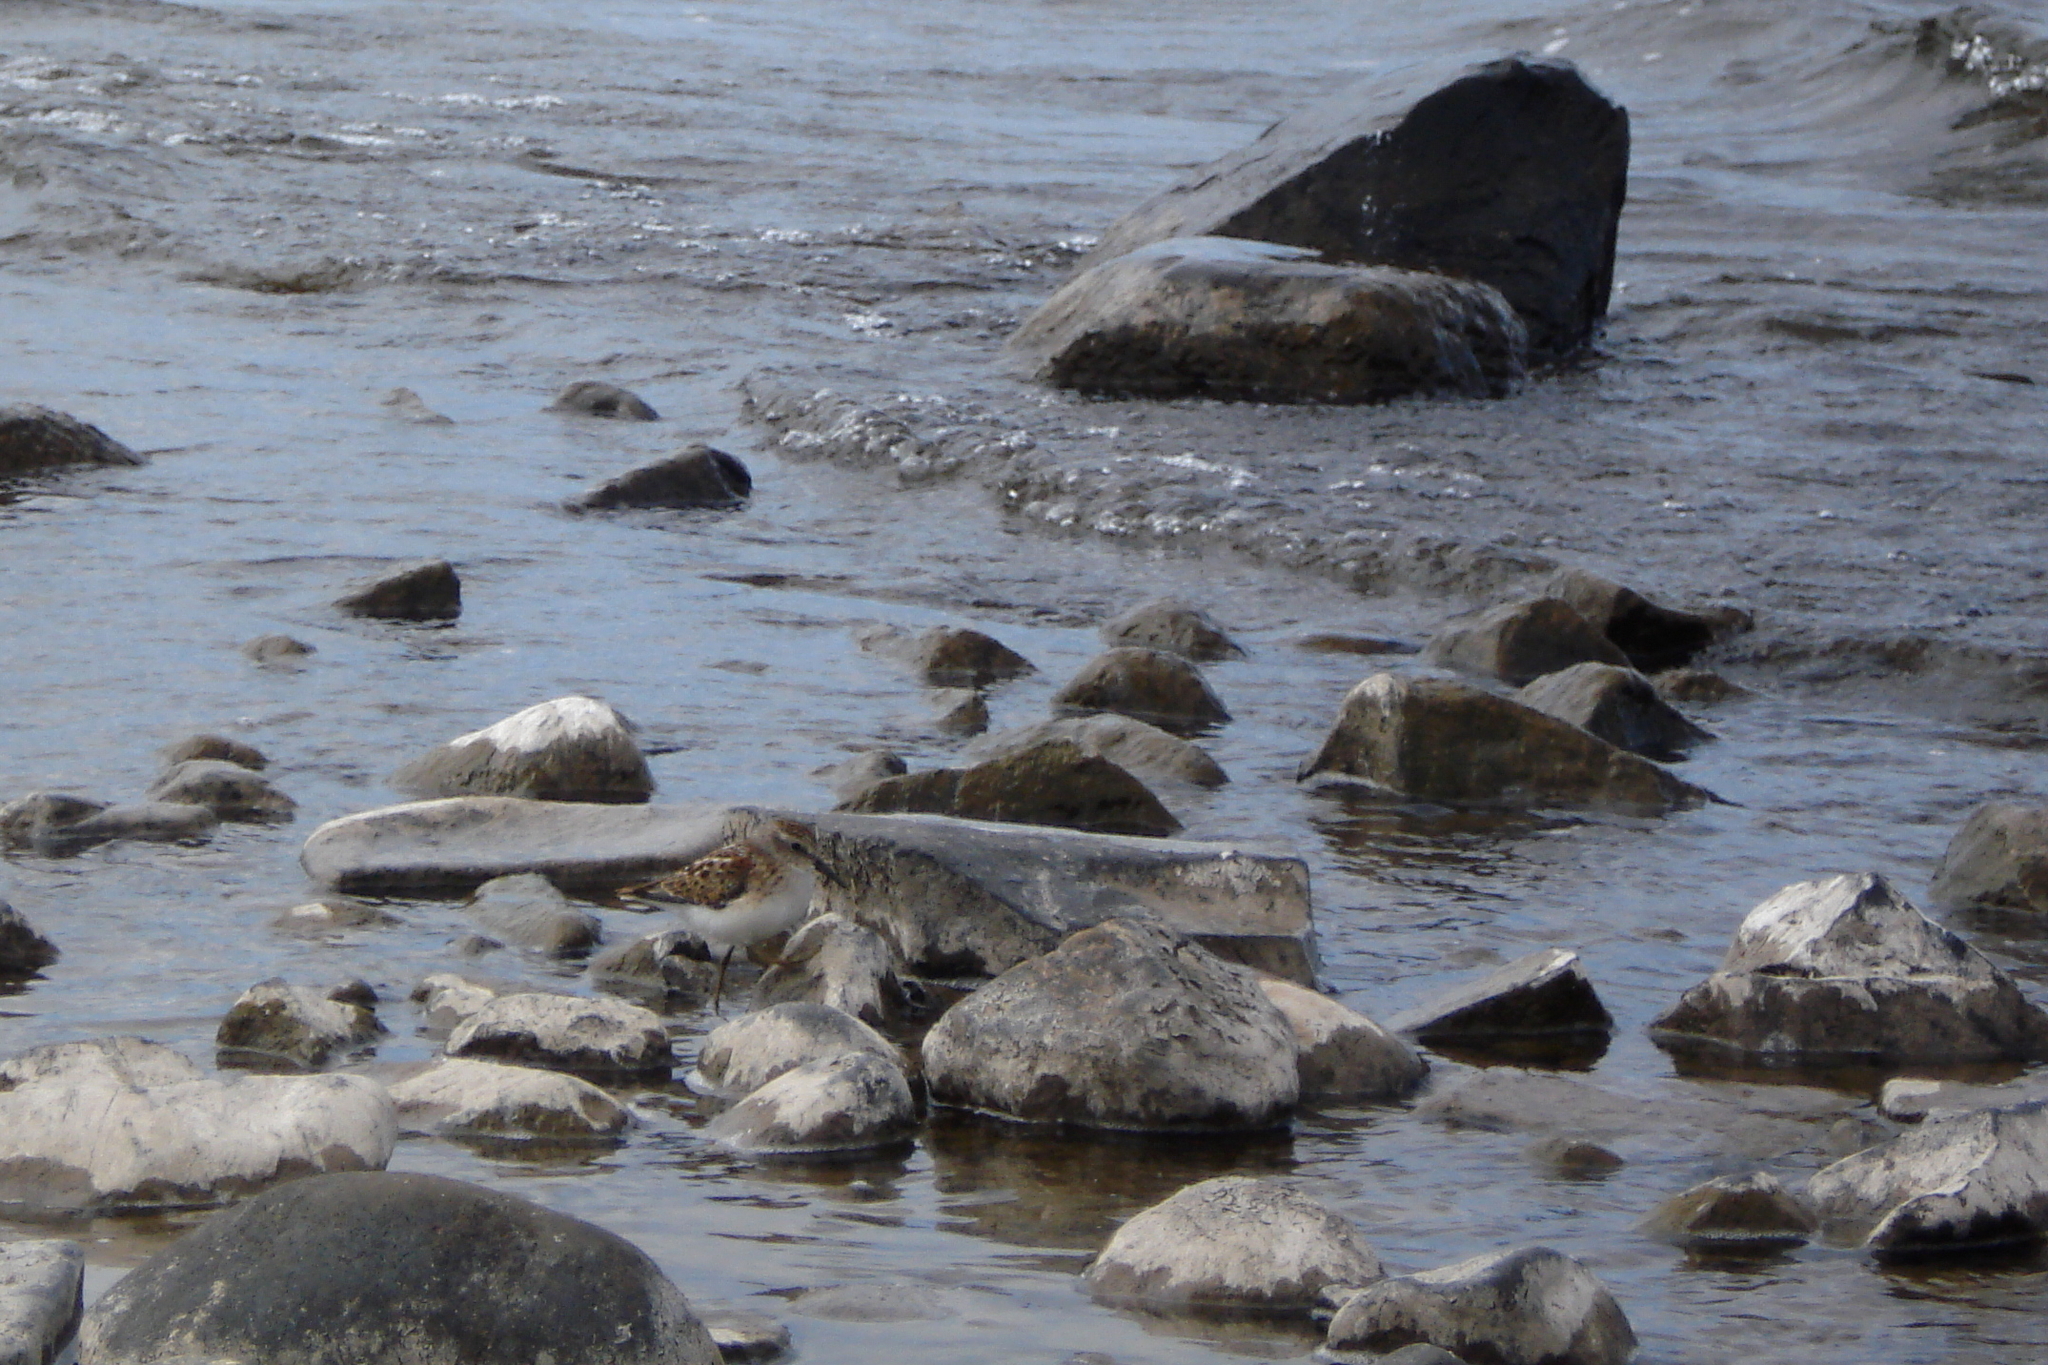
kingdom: Animalia
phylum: Chordata
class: Aves
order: Charadriiformes
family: Scolopacidae
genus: Calidris
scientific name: Calidris minutilla
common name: Least sandpiper
